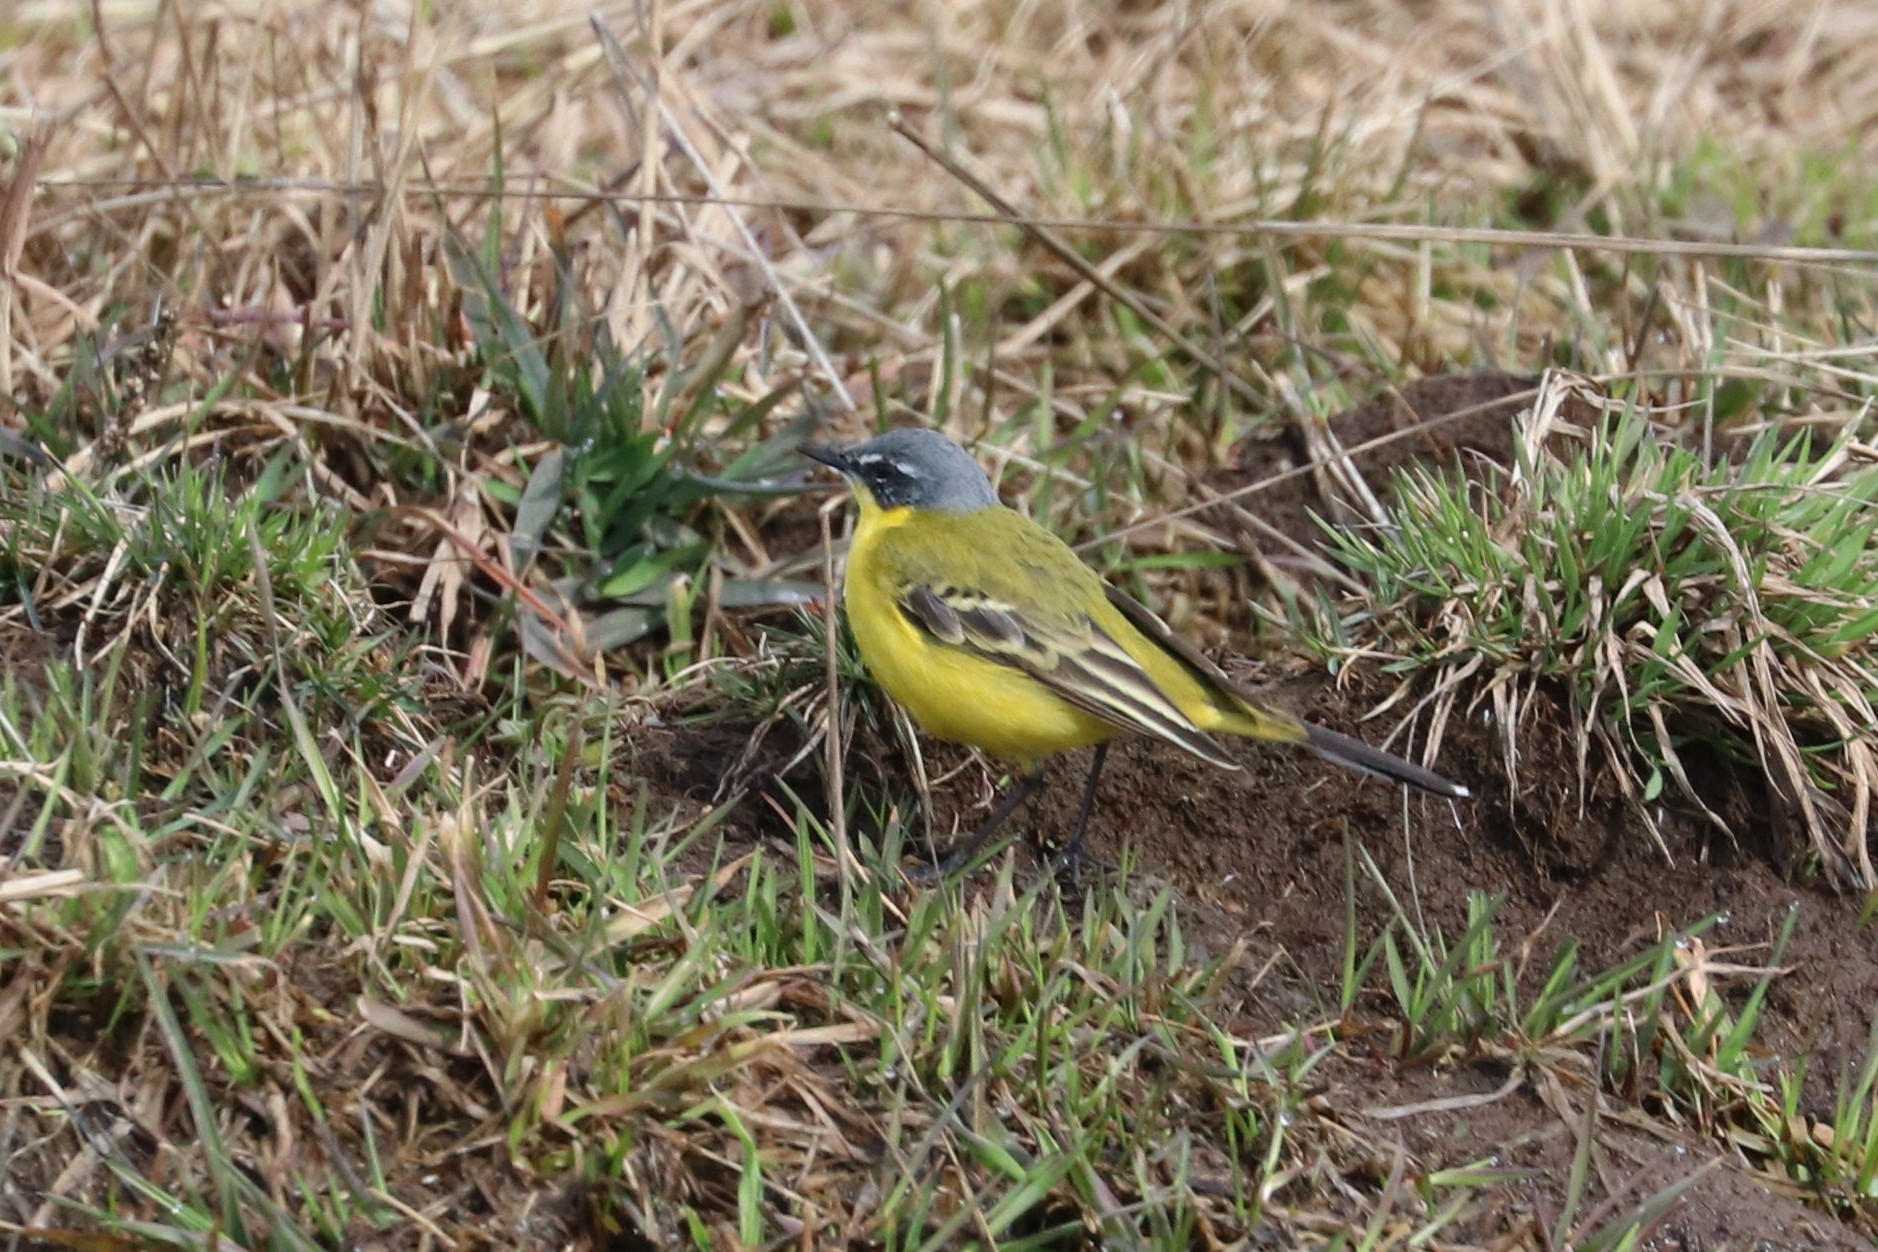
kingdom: Animalia
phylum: Chordata
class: Aves
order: Passeriformes
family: Motacillidae
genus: Motacilla
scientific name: Motacilla flava
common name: Western yellow wagtail
